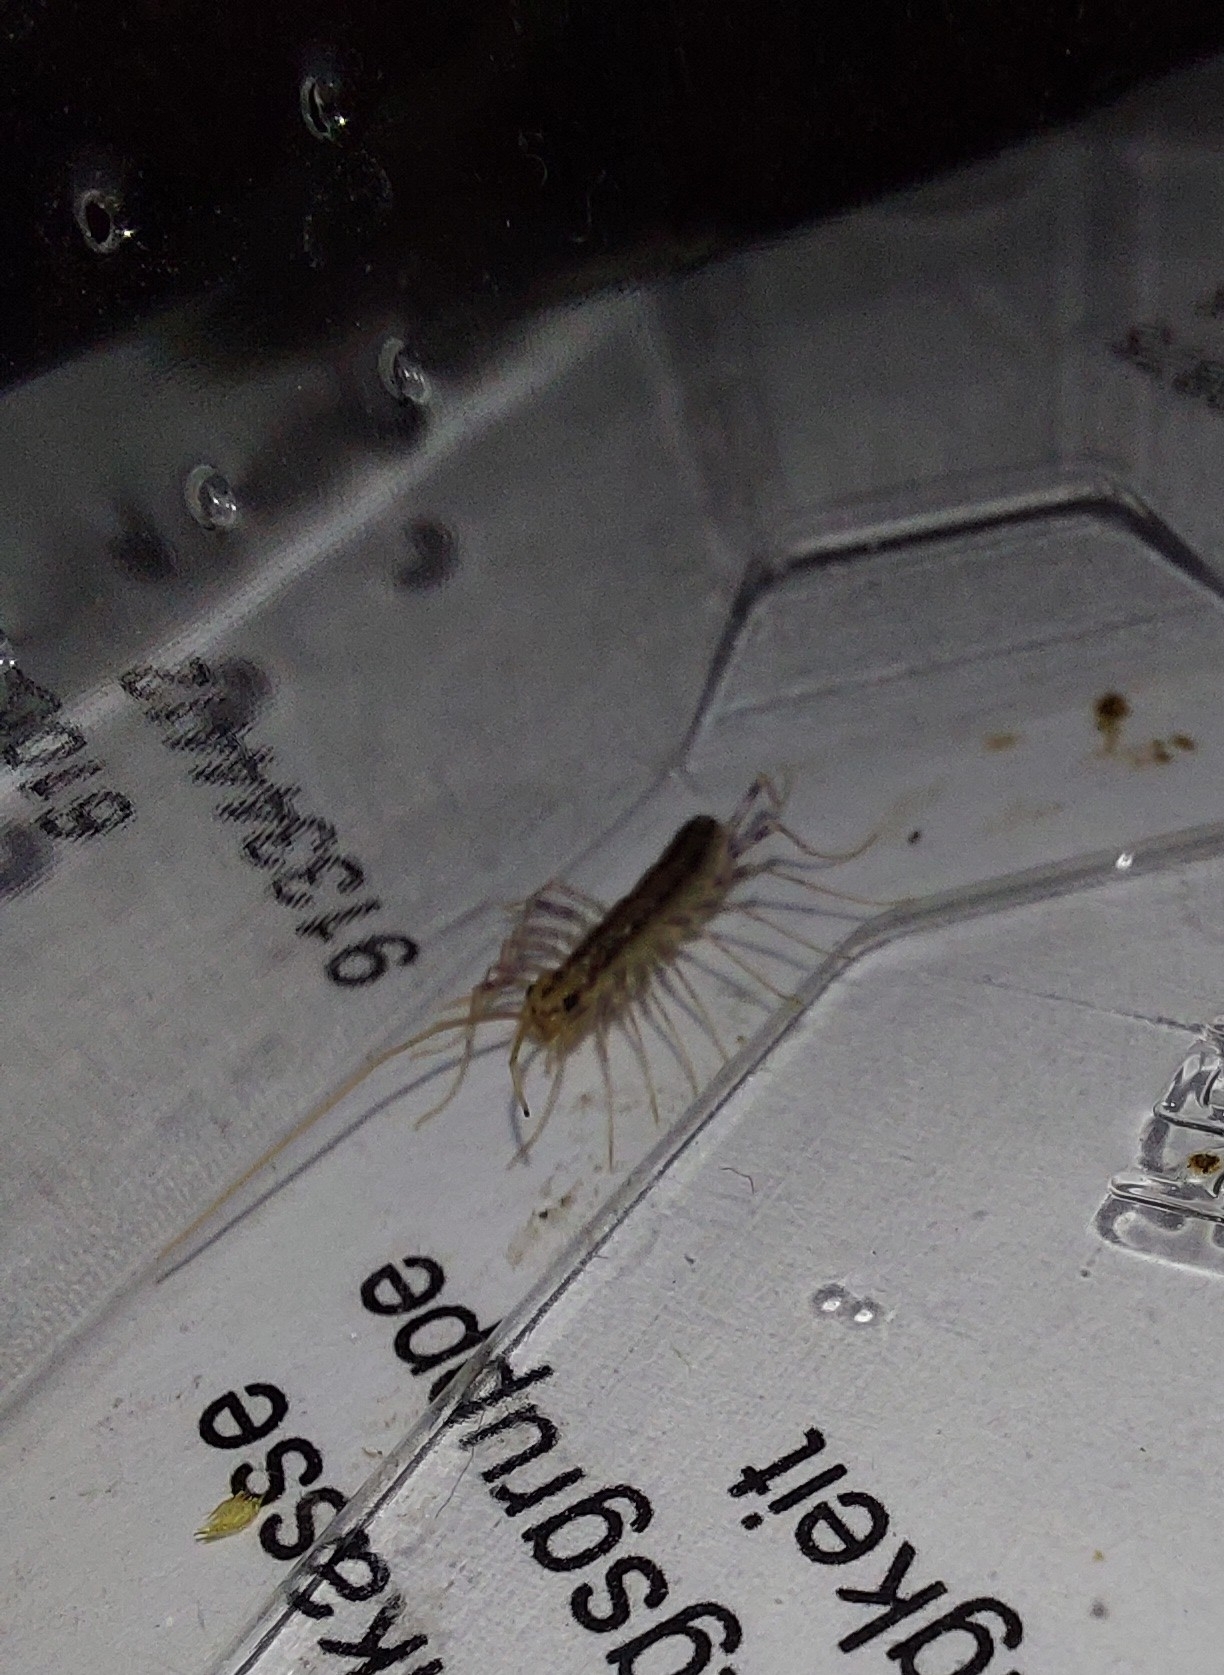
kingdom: Animalia
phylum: Arthropoda
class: Chilopoda
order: Scutigeromorpha
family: Scutigeridae
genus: Scutigera
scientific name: Scutigera coleoptrata
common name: House centipede
